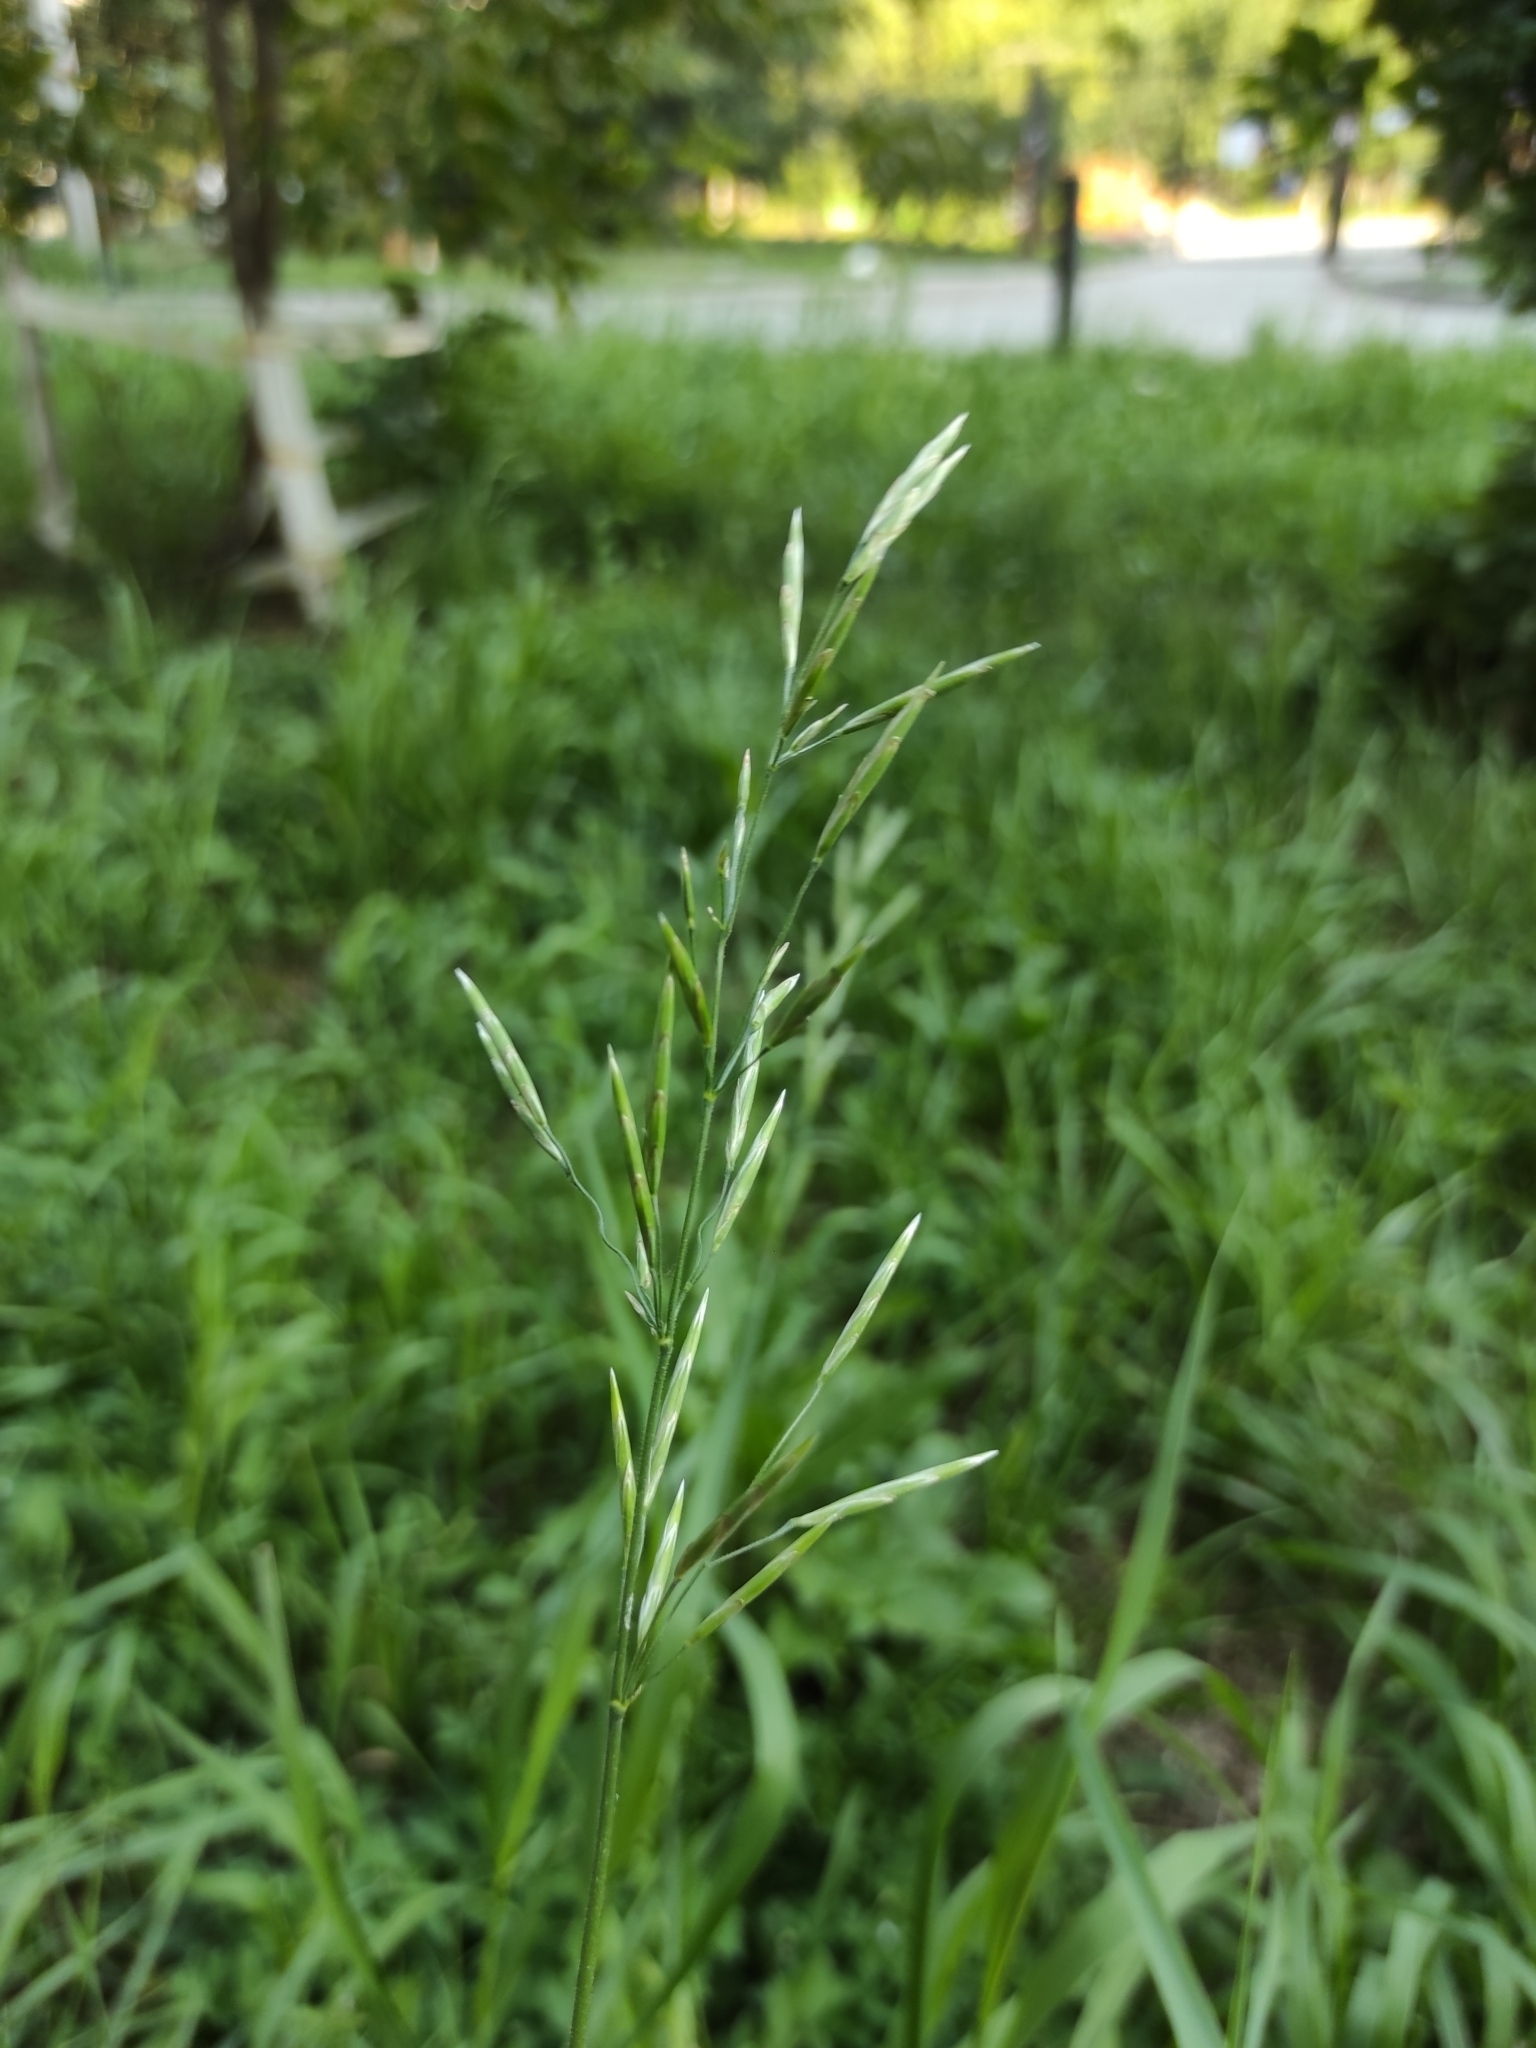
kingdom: Plantae
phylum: Tracheophyta
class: Liliopsida
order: Poales
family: Poaceae
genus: Bromus
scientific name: Bromus inermis
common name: Smooth brome
